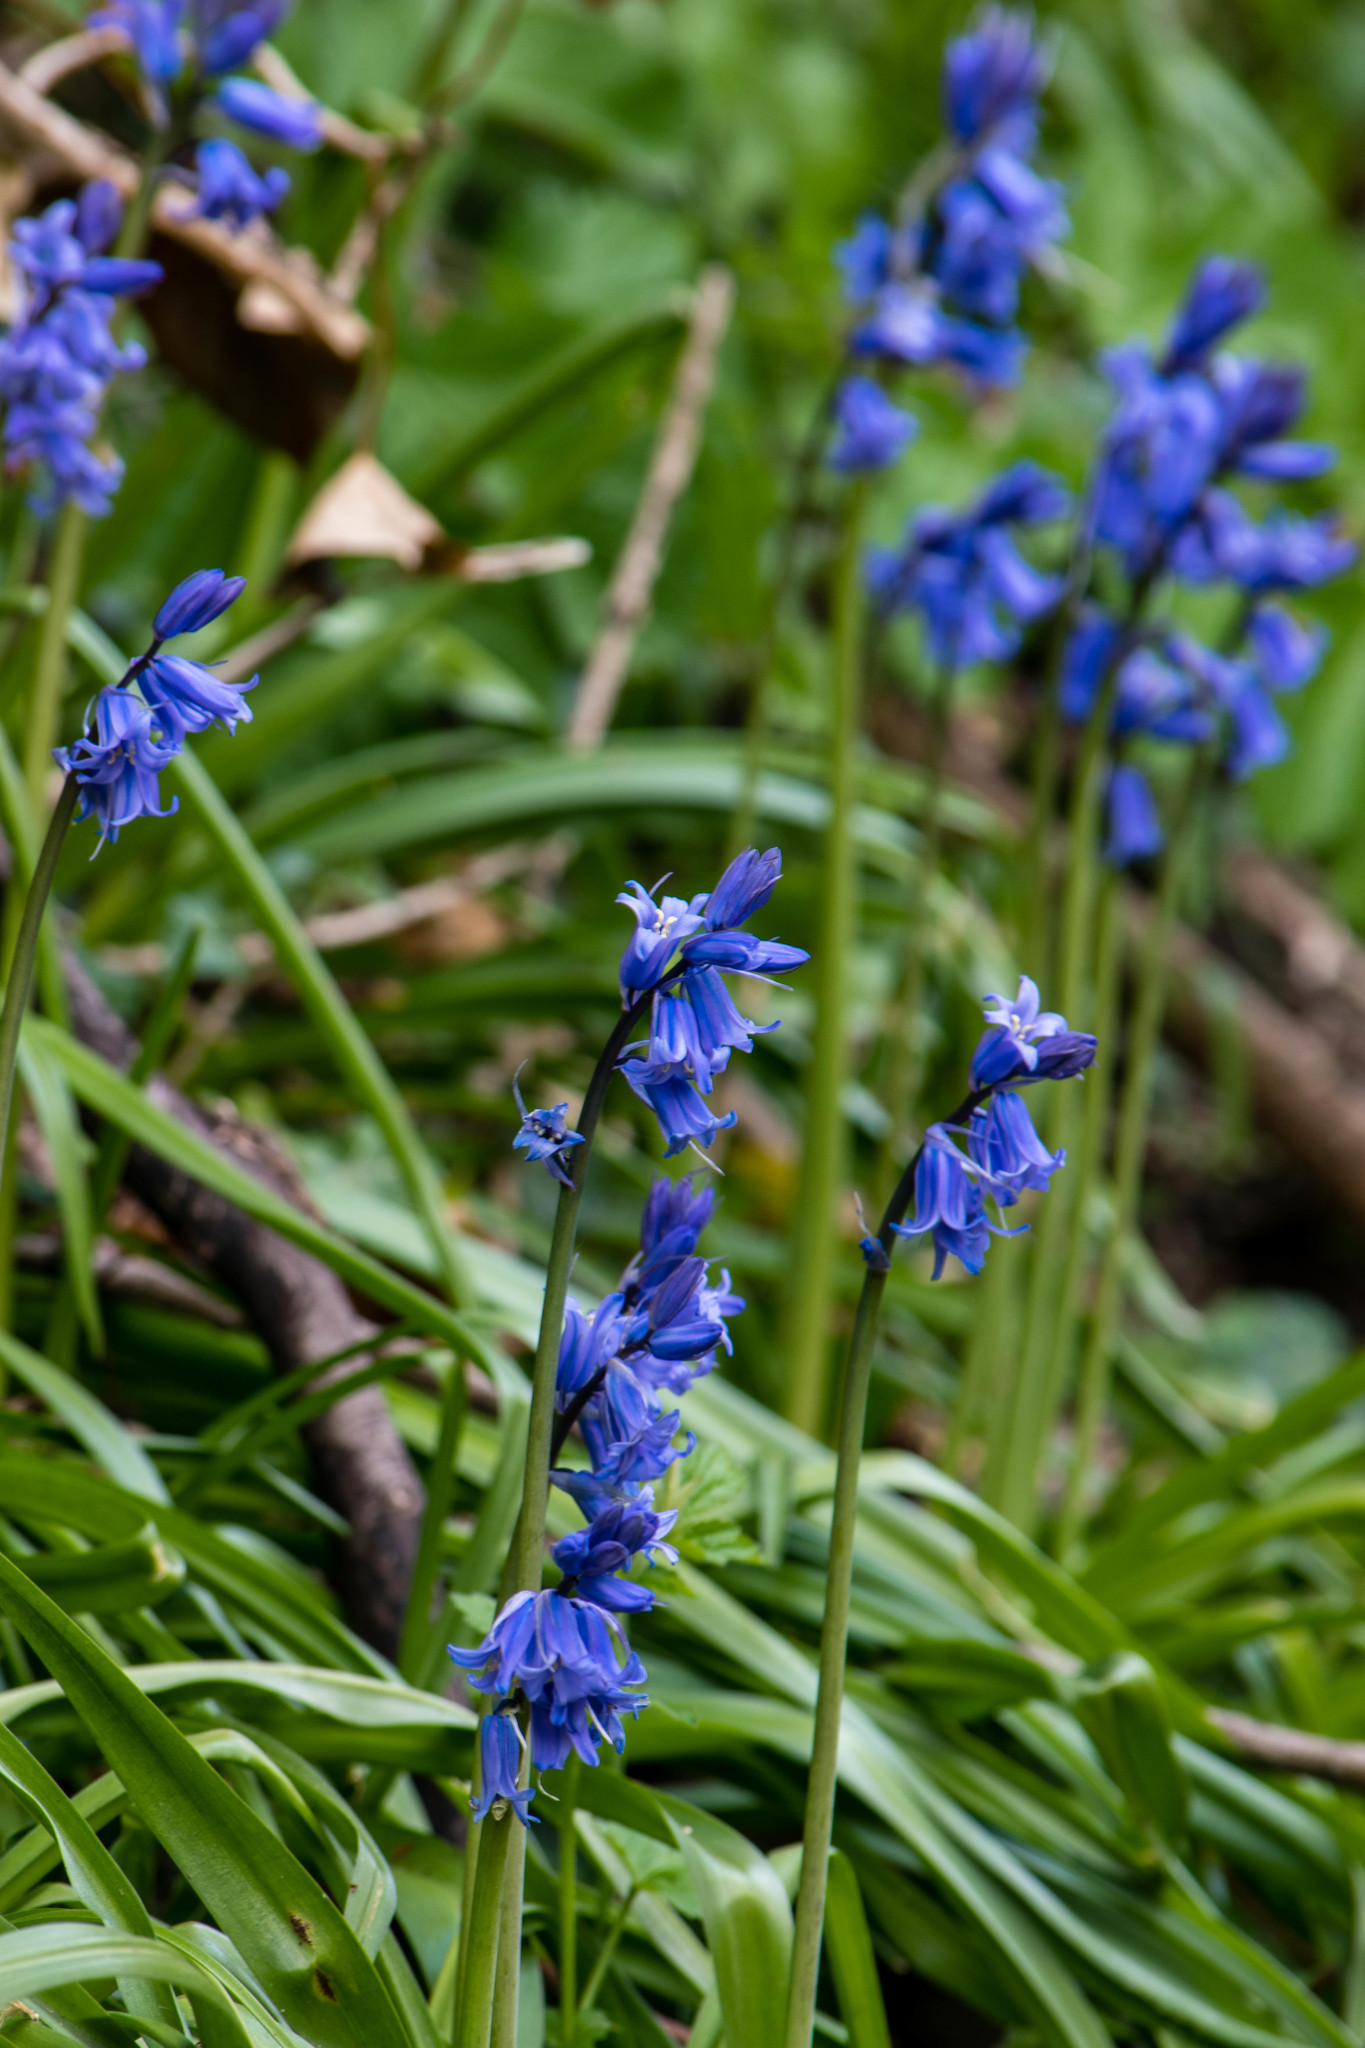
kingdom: Plantae
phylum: Tracheophyta
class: Liliopsida
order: Asparagales
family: Asparagaceae
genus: Hyacinthoides
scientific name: Hyacinthoides non-scripta
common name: Bluebell
